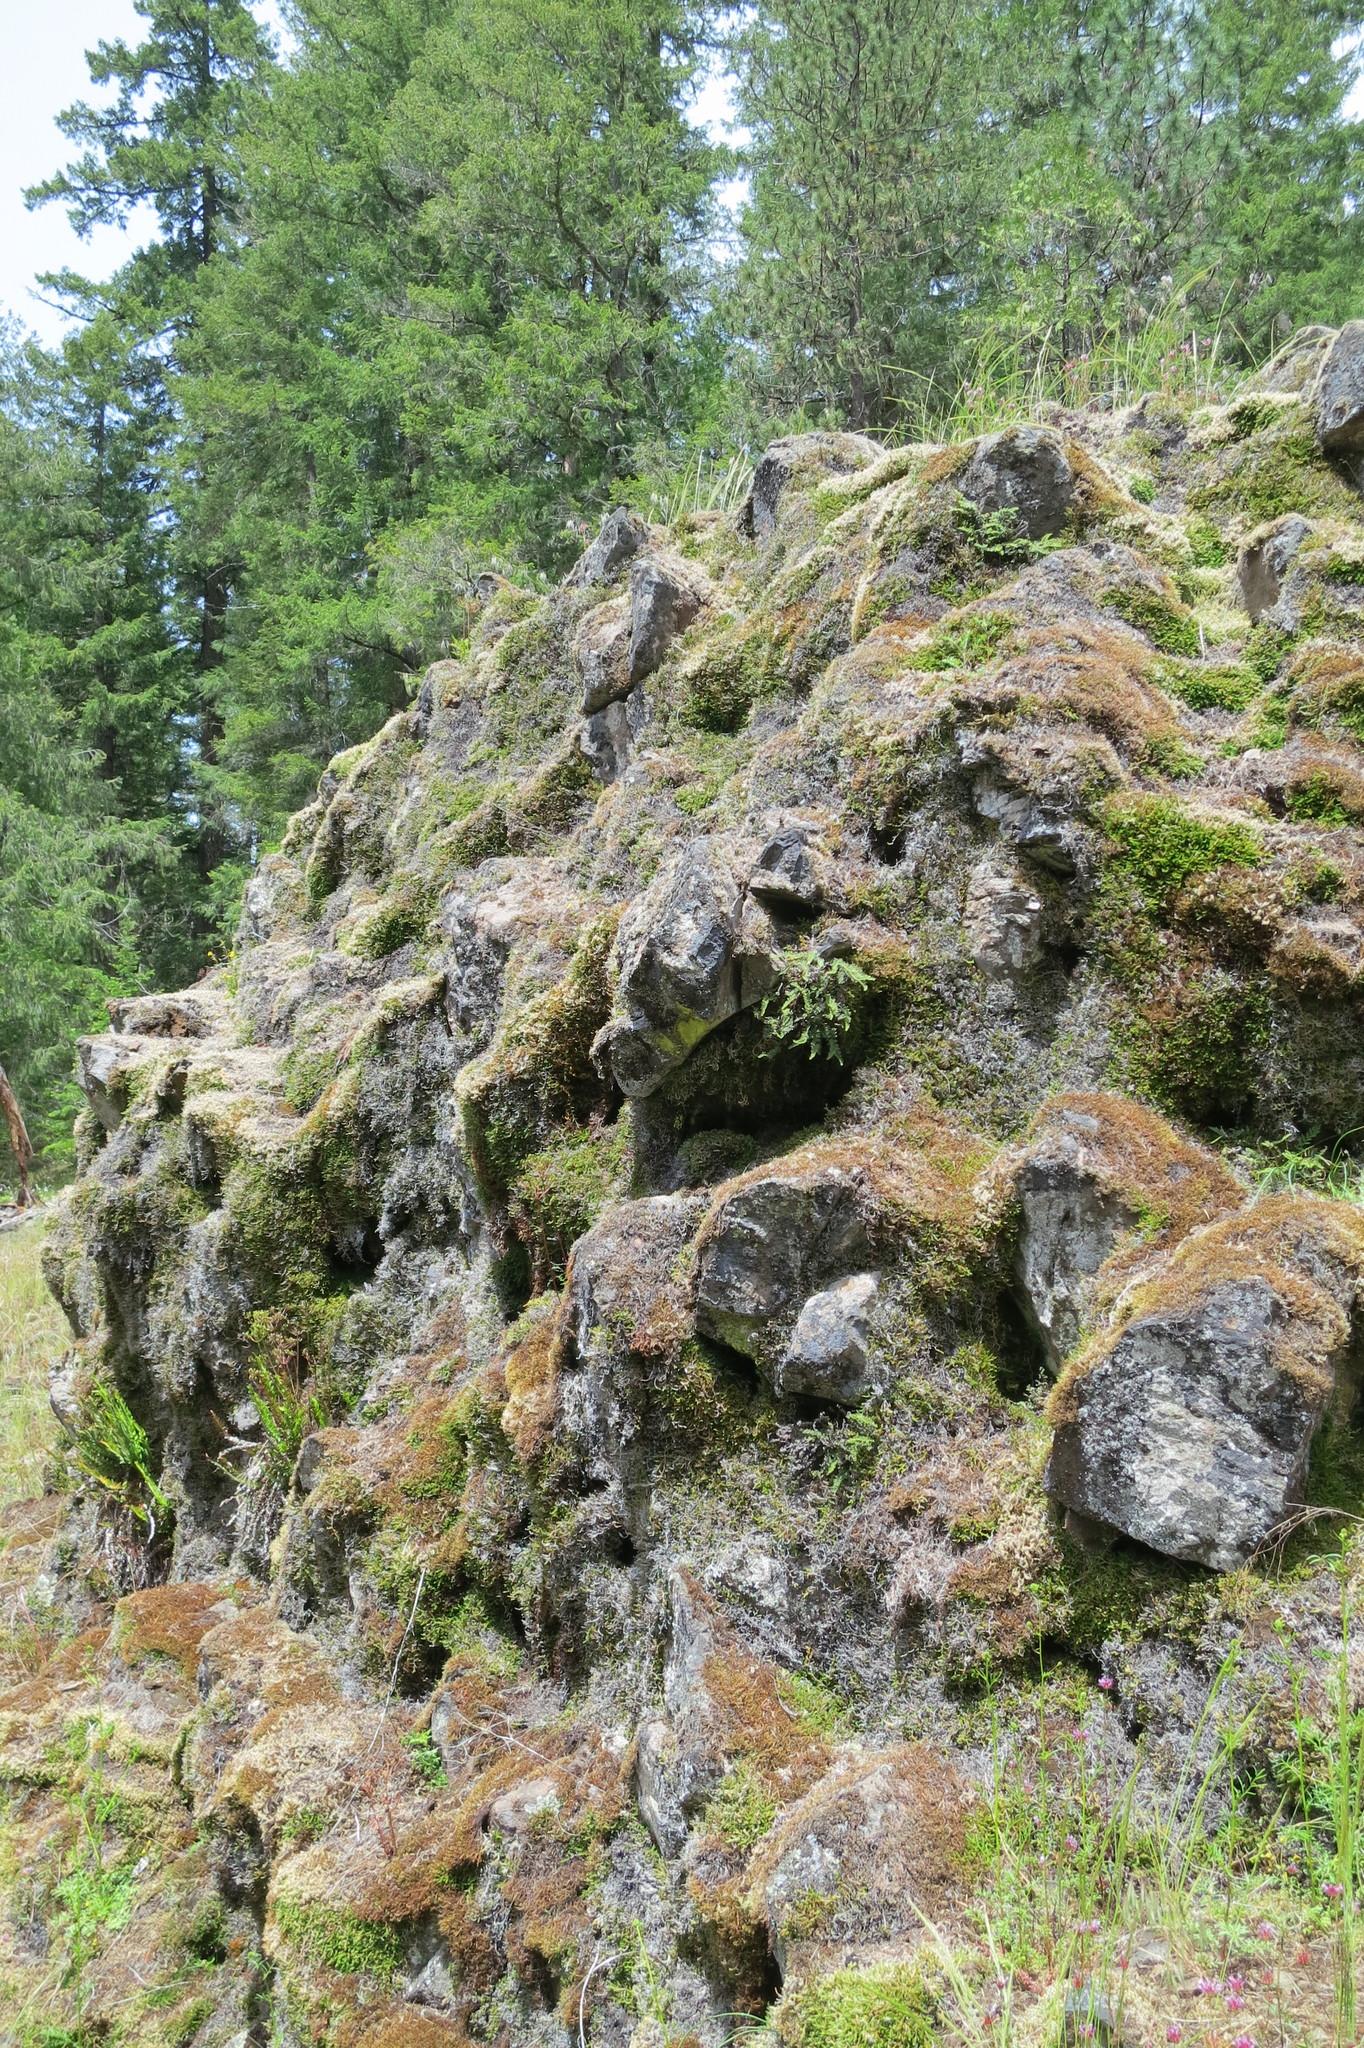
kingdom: Plantae
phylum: Tracheophyta
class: Polypodiopsida
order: Polypodiales
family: Dryopteridaceae
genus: Polystichum
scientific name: Polystichum imbricans
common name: Dwarf western sword fern
